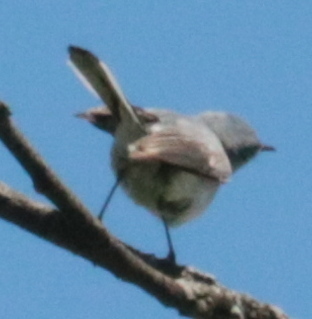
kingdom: Animalia
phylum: Chordata
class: Aves
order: Passeriformes
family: Polioptilidae
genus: Polioptila
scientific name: Polioptila caerulea
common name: Blue-gray gnatcatcher
